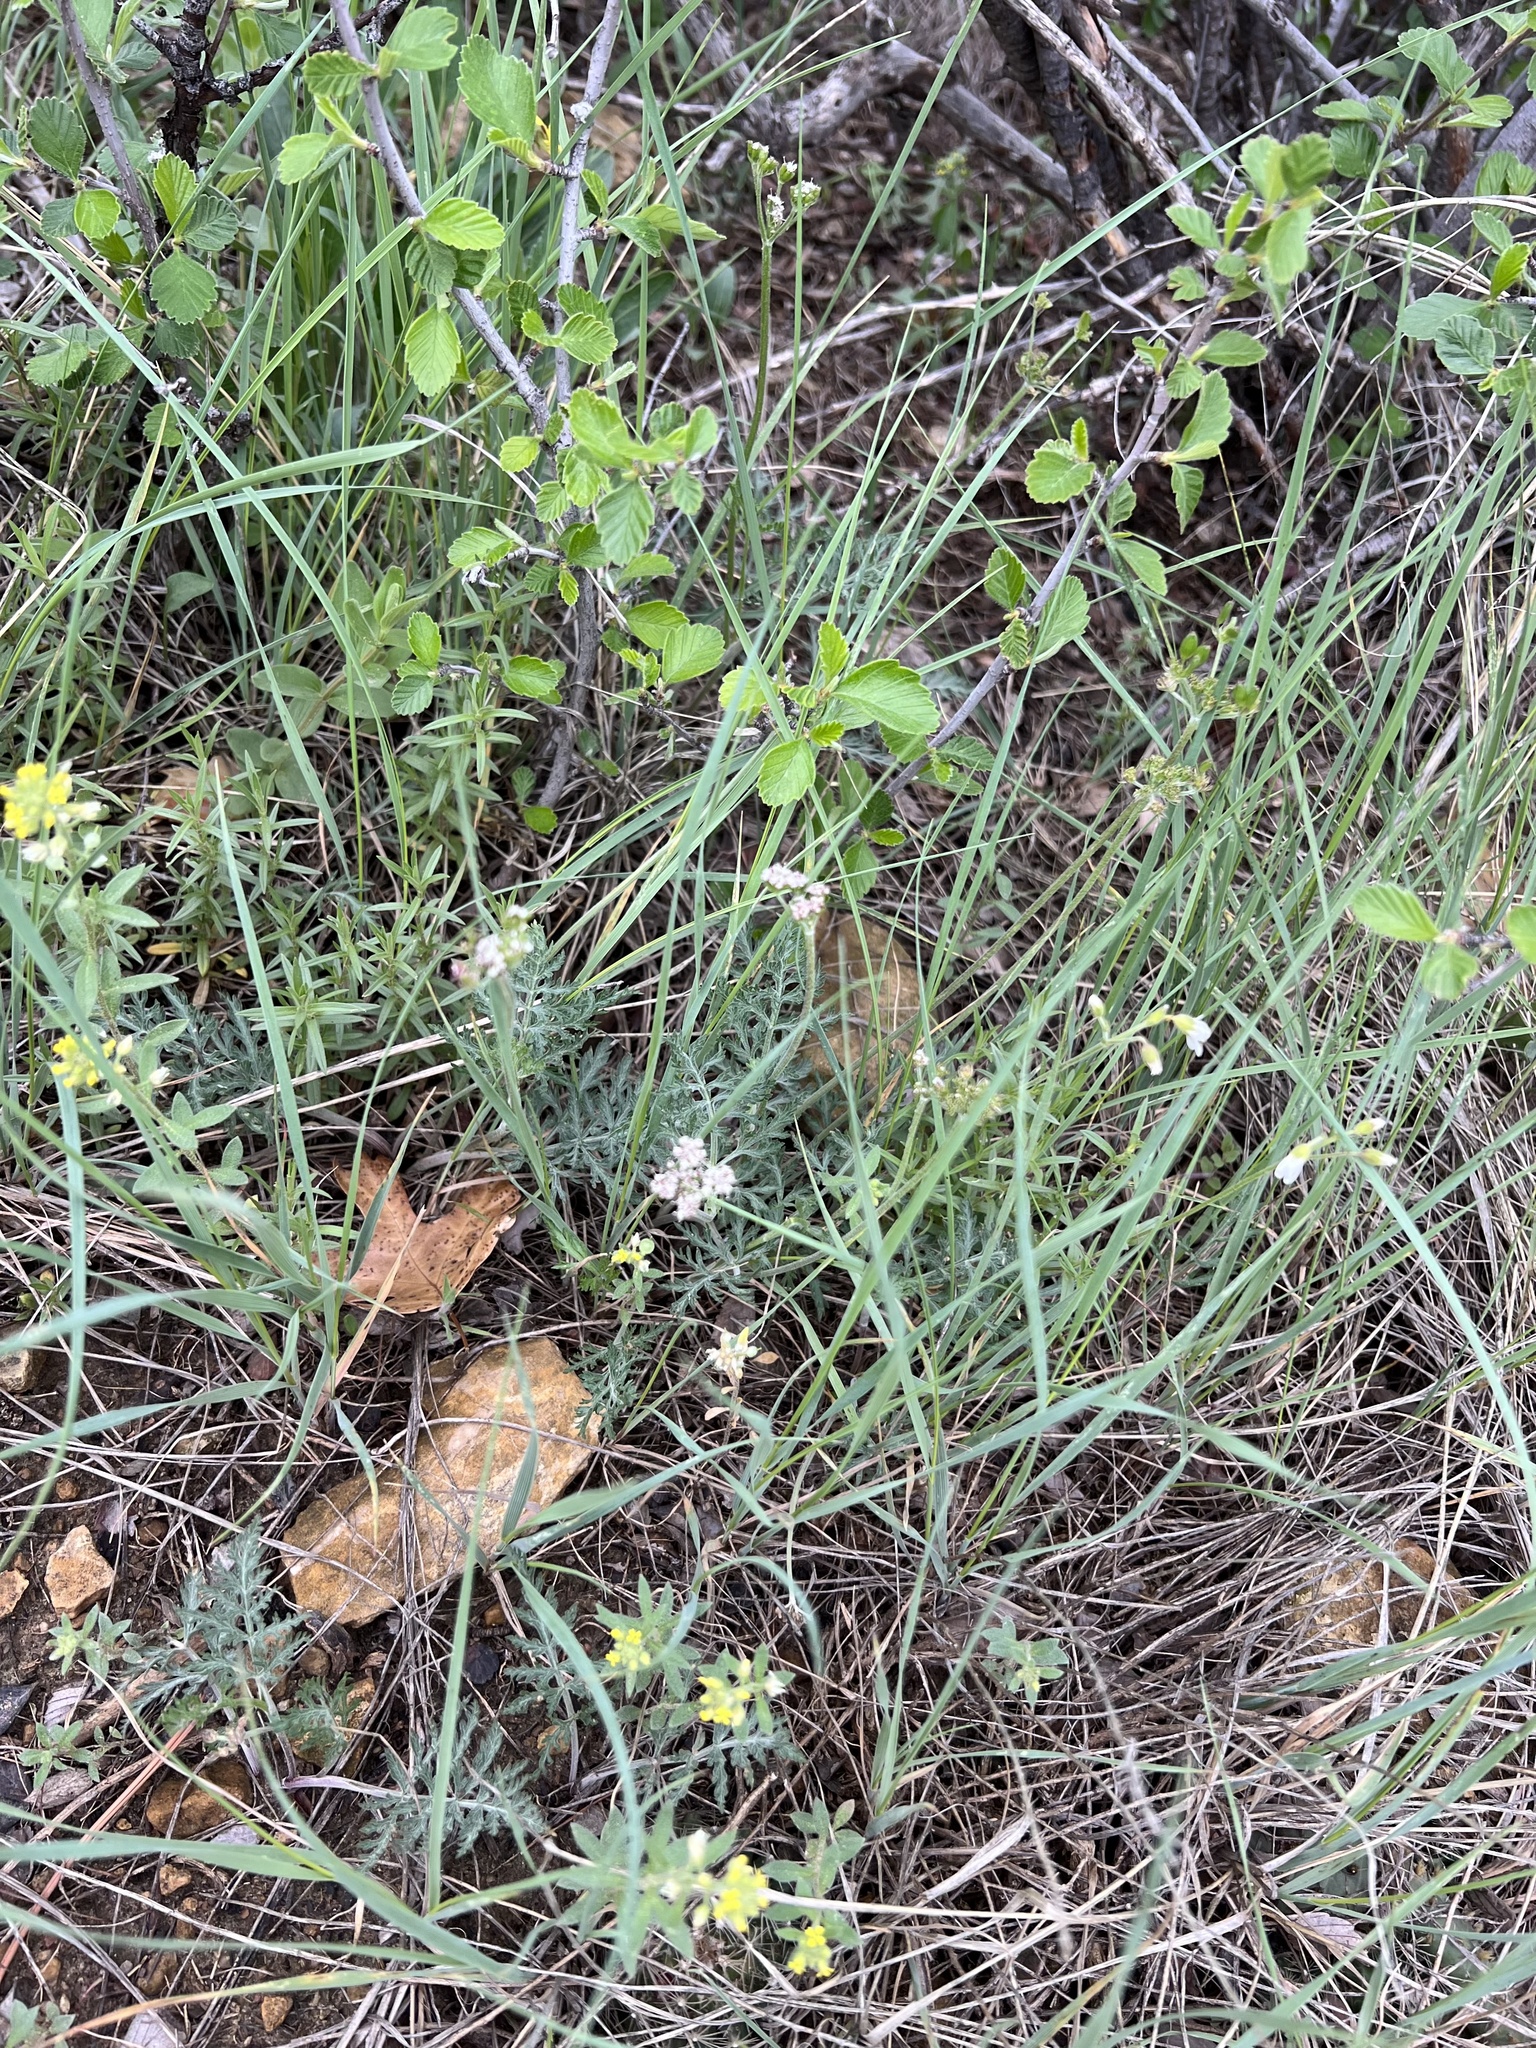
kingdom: Plantae
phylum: Tracheophyta
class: Magnoliopsida
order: Apiales
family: Apiaceae
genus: Lomatium
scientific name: Lomatium orientale
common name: Eastern cous
